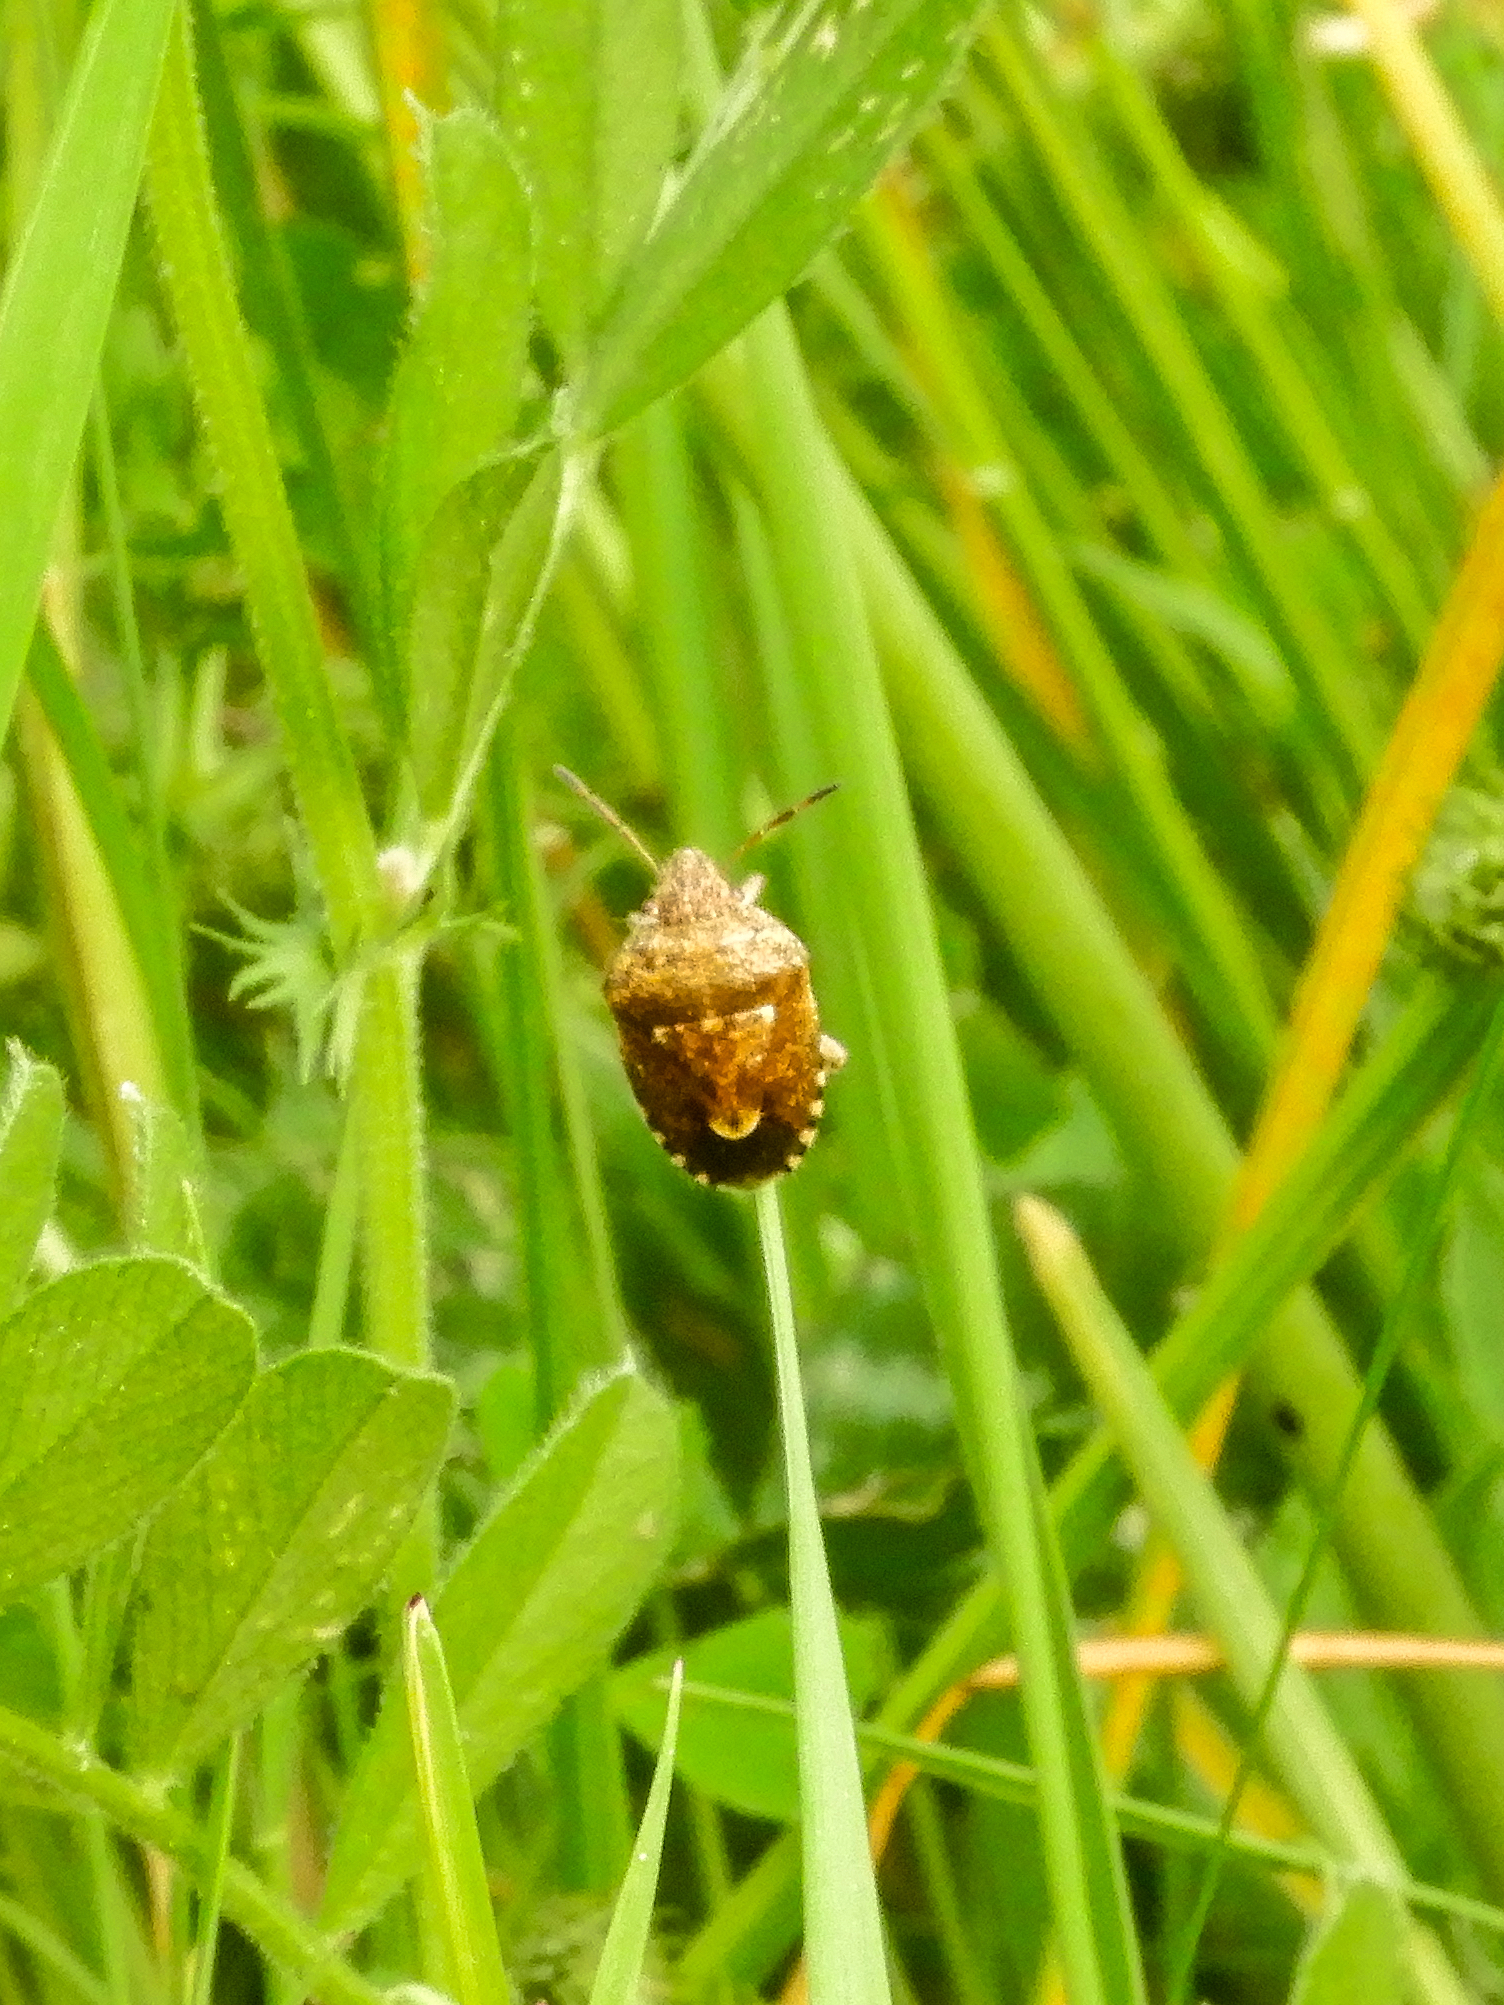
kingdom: Animalia
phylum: Arthropoda
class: Insecta
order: Hemiptera
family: Pentatomidae
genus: Staria
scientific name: Staria lunata
